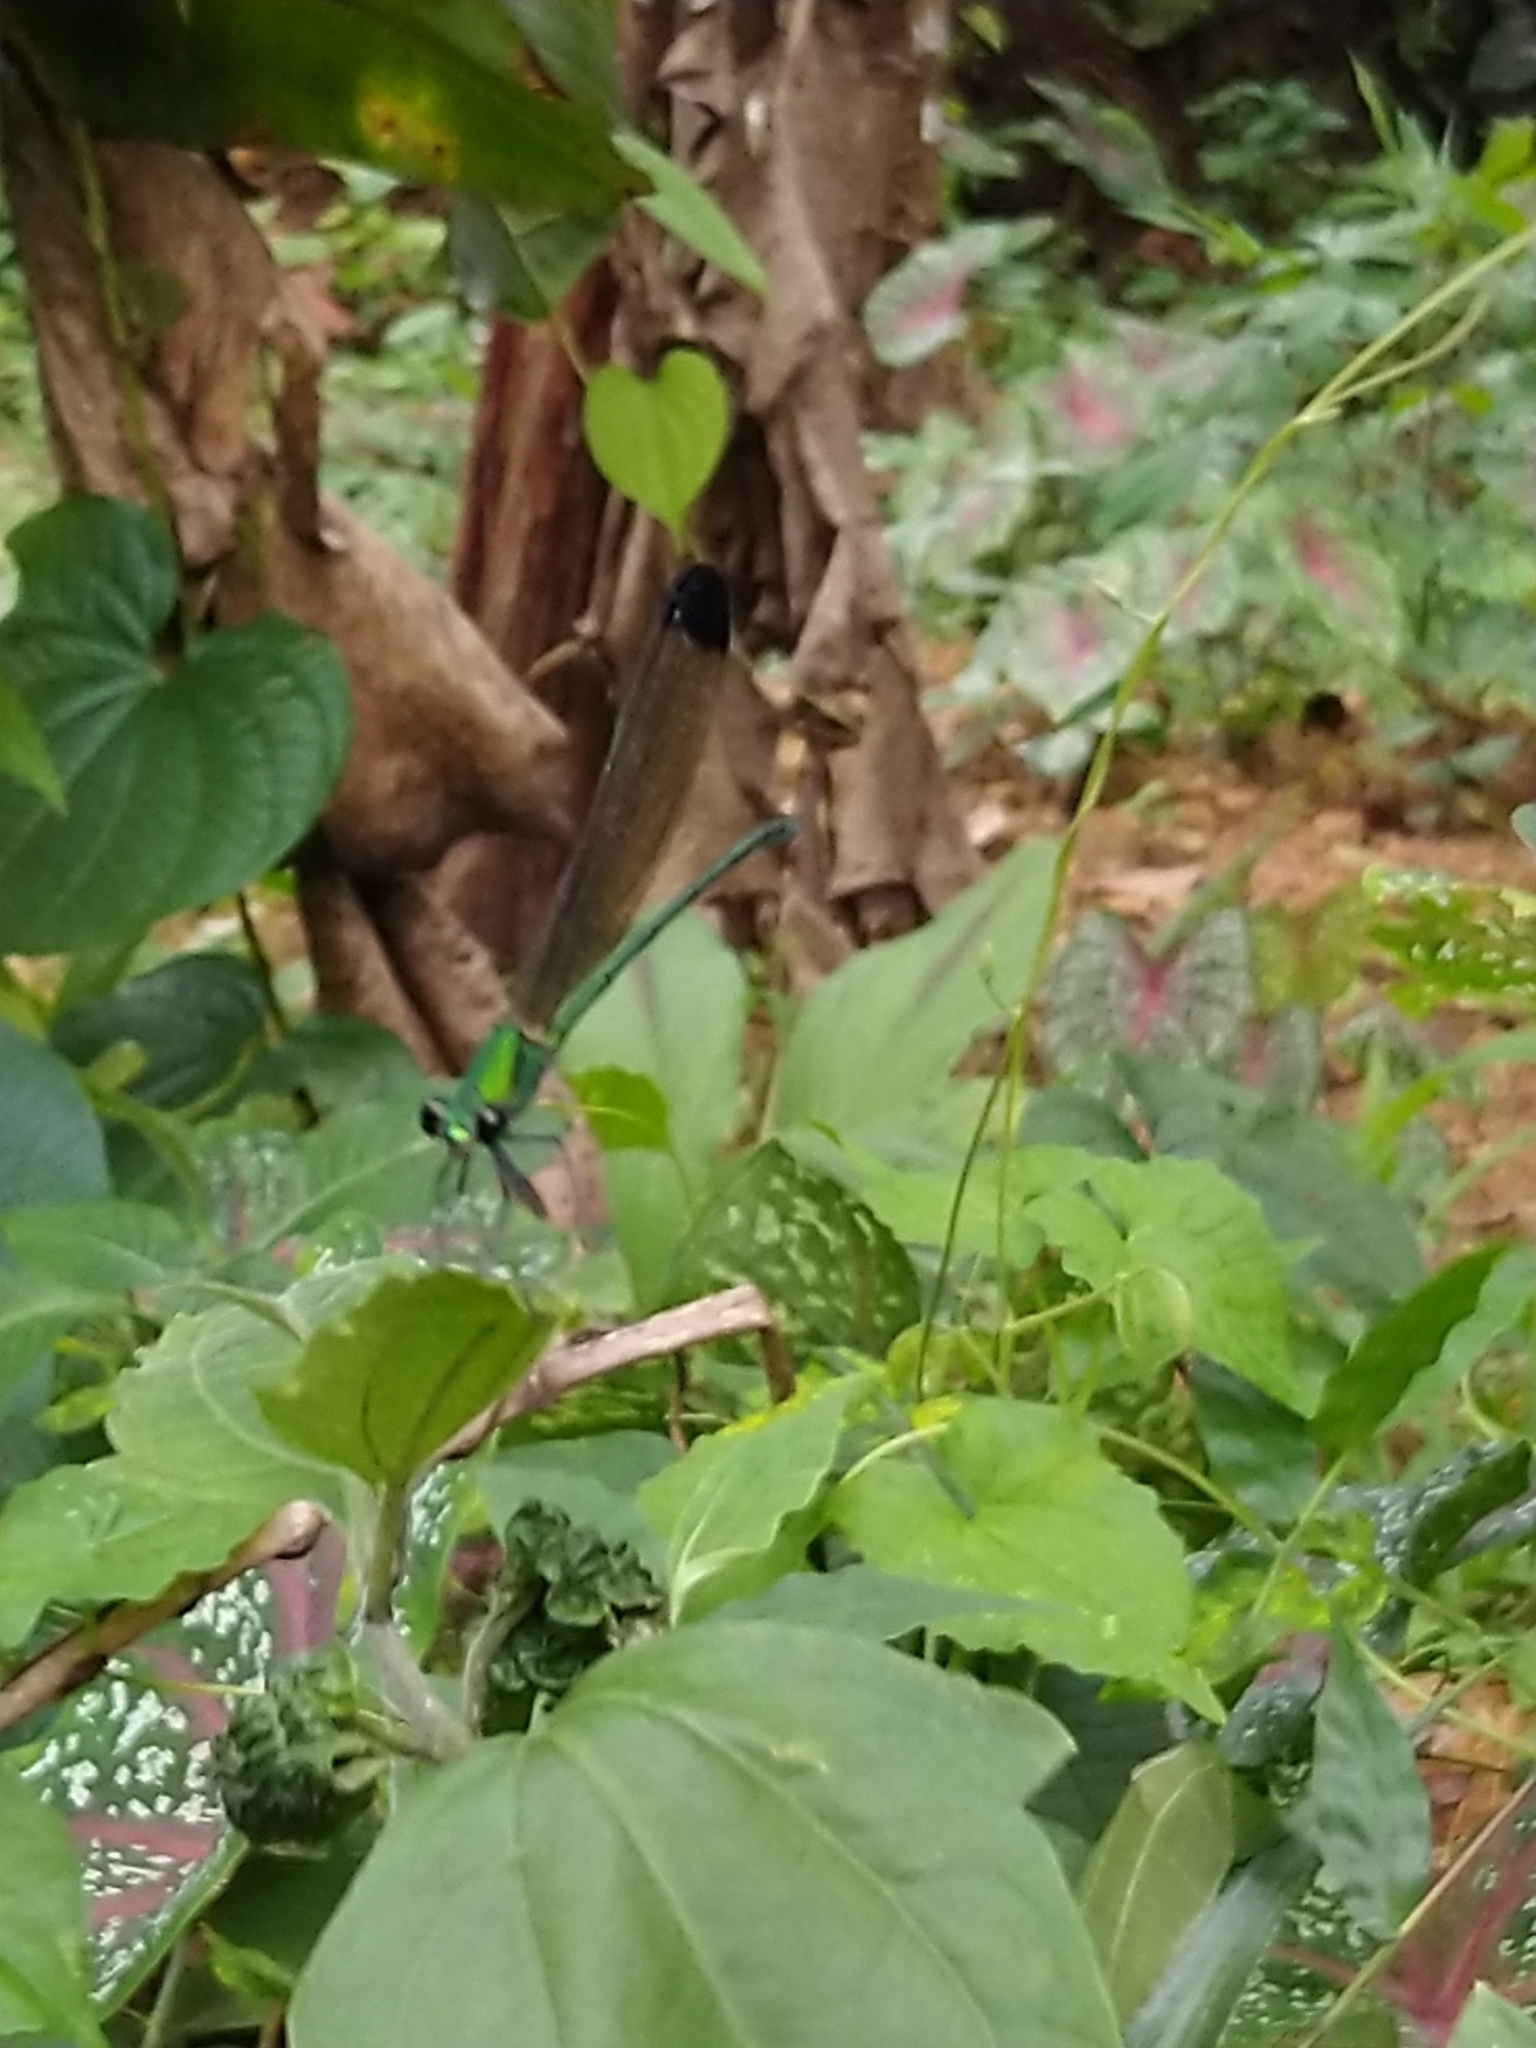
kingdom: Animalia
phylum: Arthropoda
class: Insecta
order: Odonata
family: Calopterygidae
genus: Vestalis
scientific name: Vestalis apicalis
